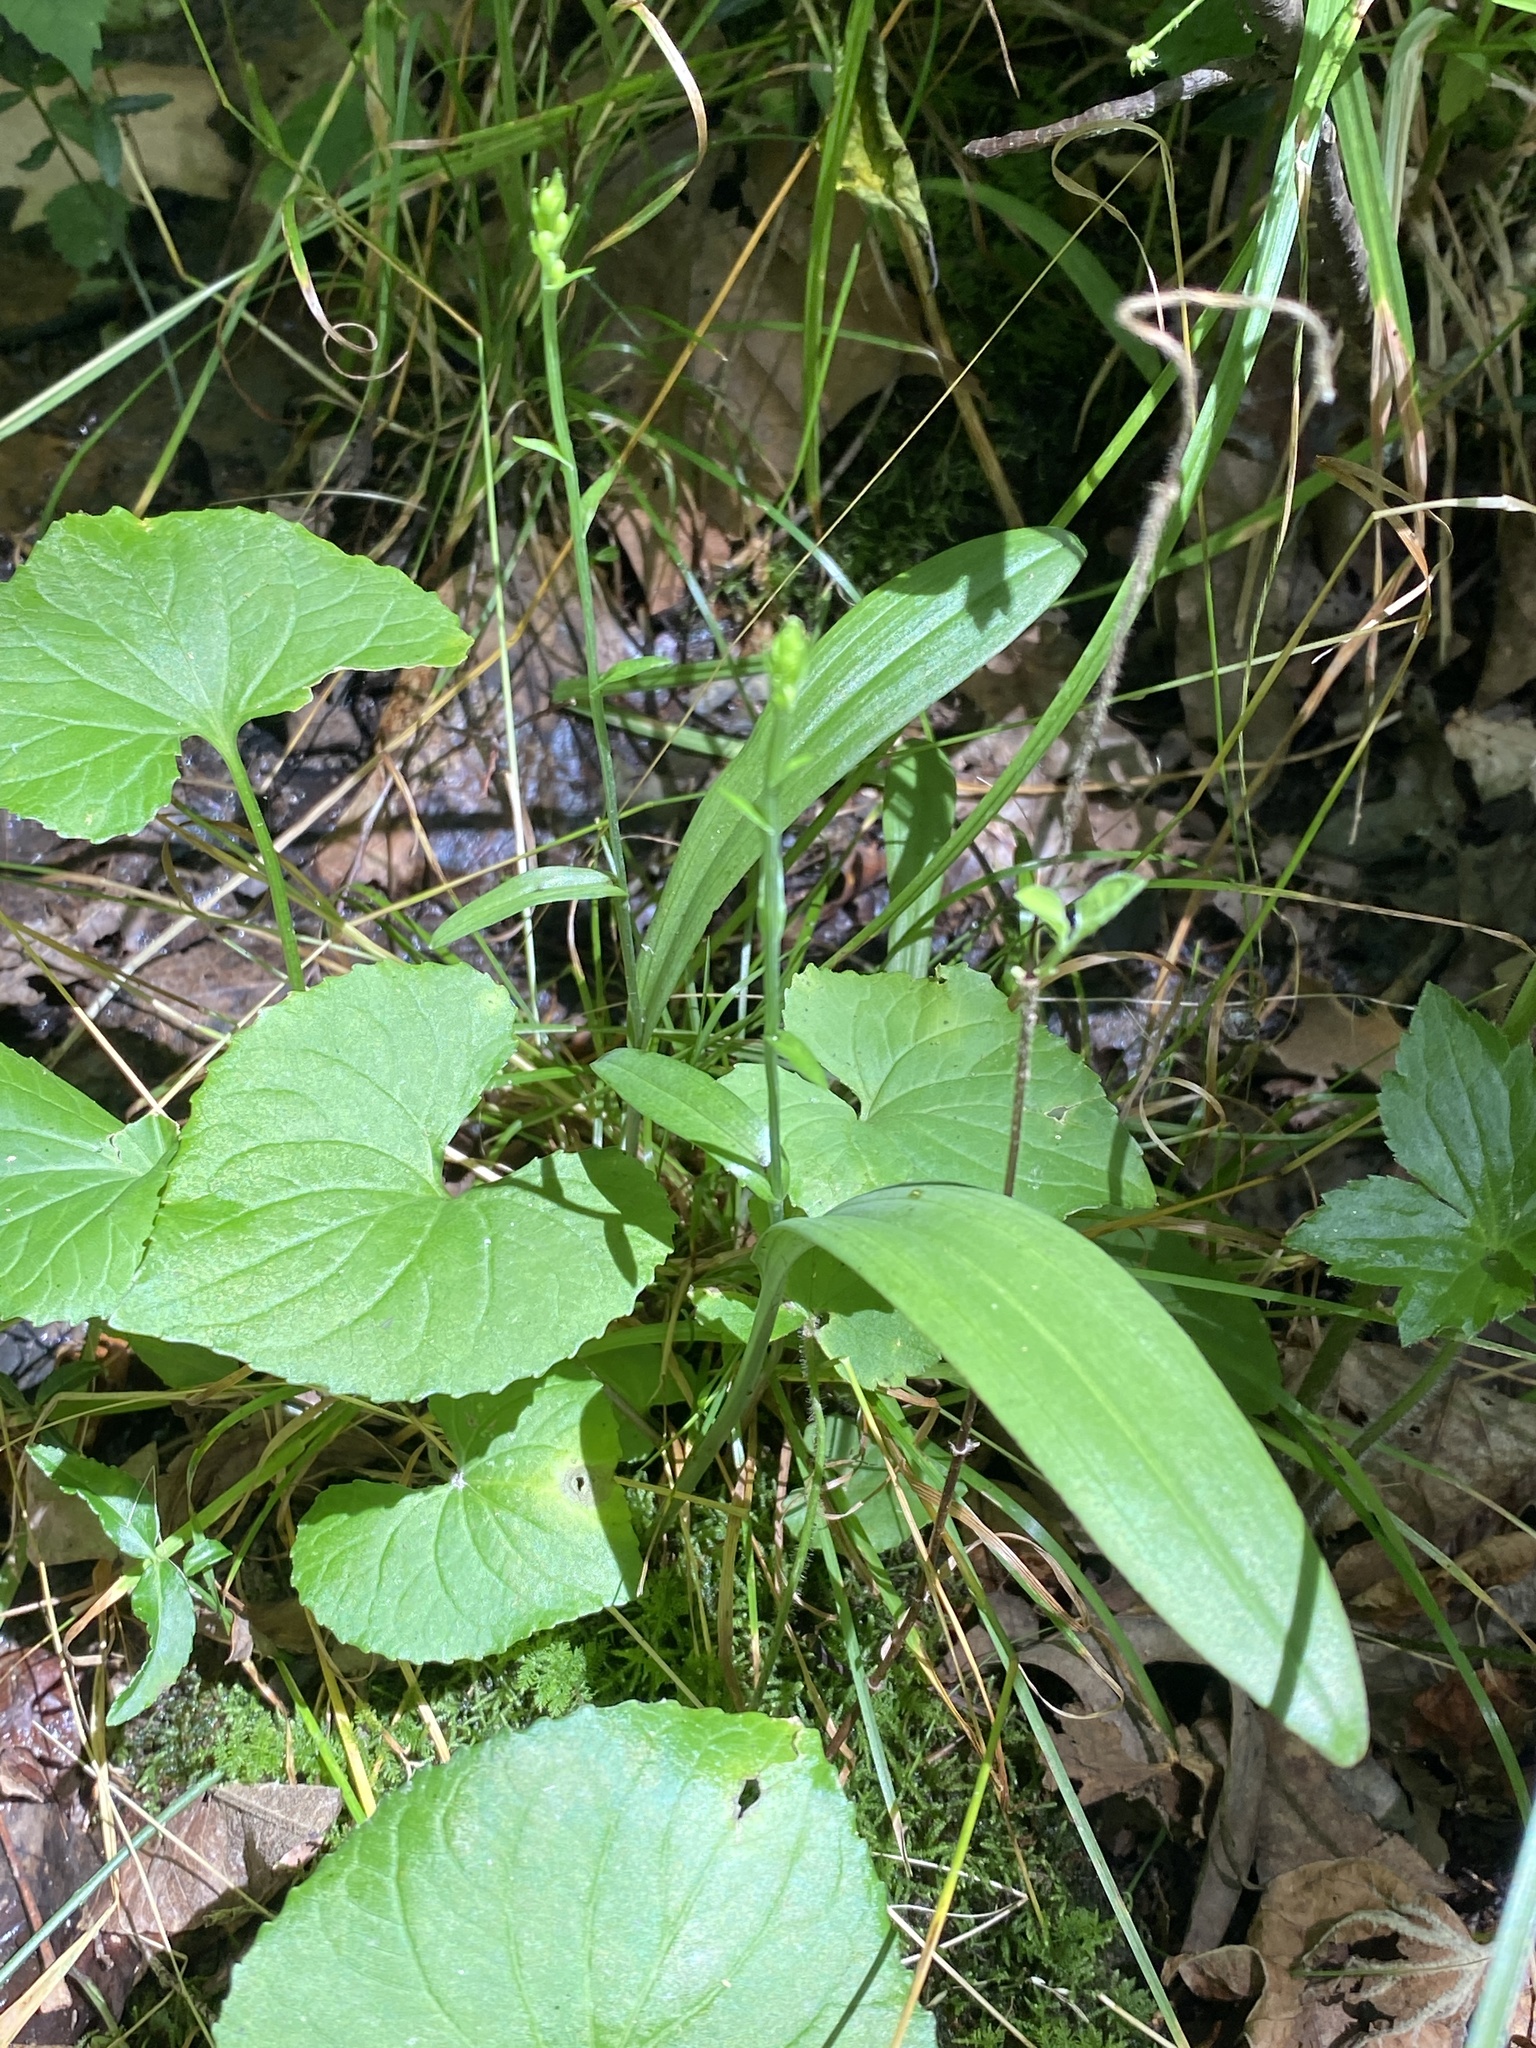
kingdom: Plantae
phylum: Tracheophyta
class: Liliopsida
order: Asparagales
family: Orchidaceae
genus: Platanthera
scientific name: Platanthera clavellata
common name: Club-spur orchid
